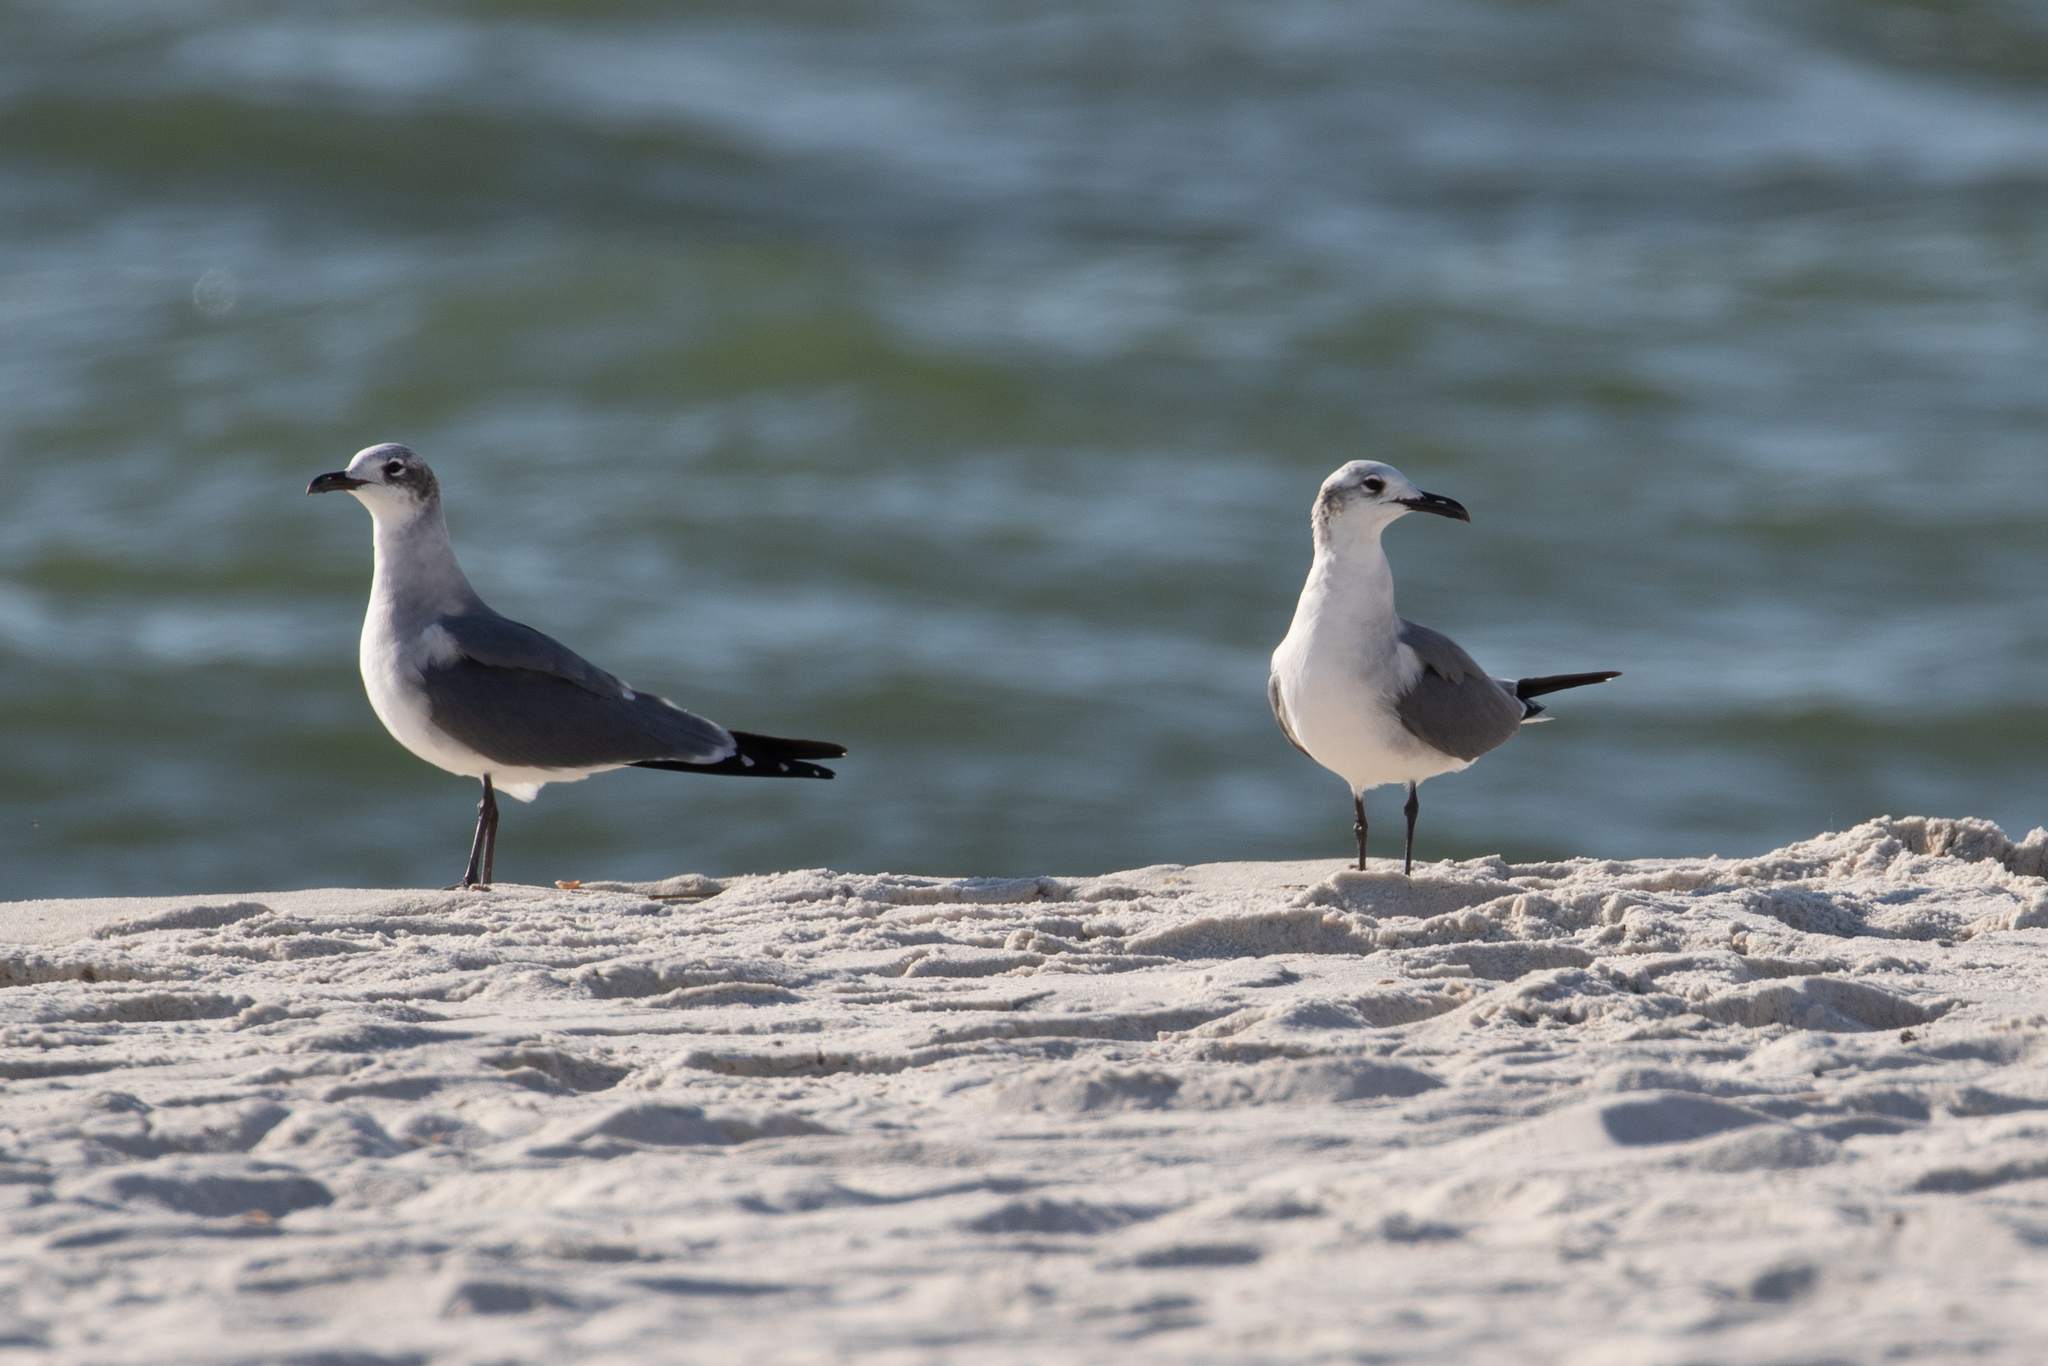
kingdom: Animalia
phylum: Chordata
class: Aves
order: Charadriiformes
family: Laridae
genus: Leucophaeus
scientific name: Leucophaeus atricilla
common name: Laughing gull
